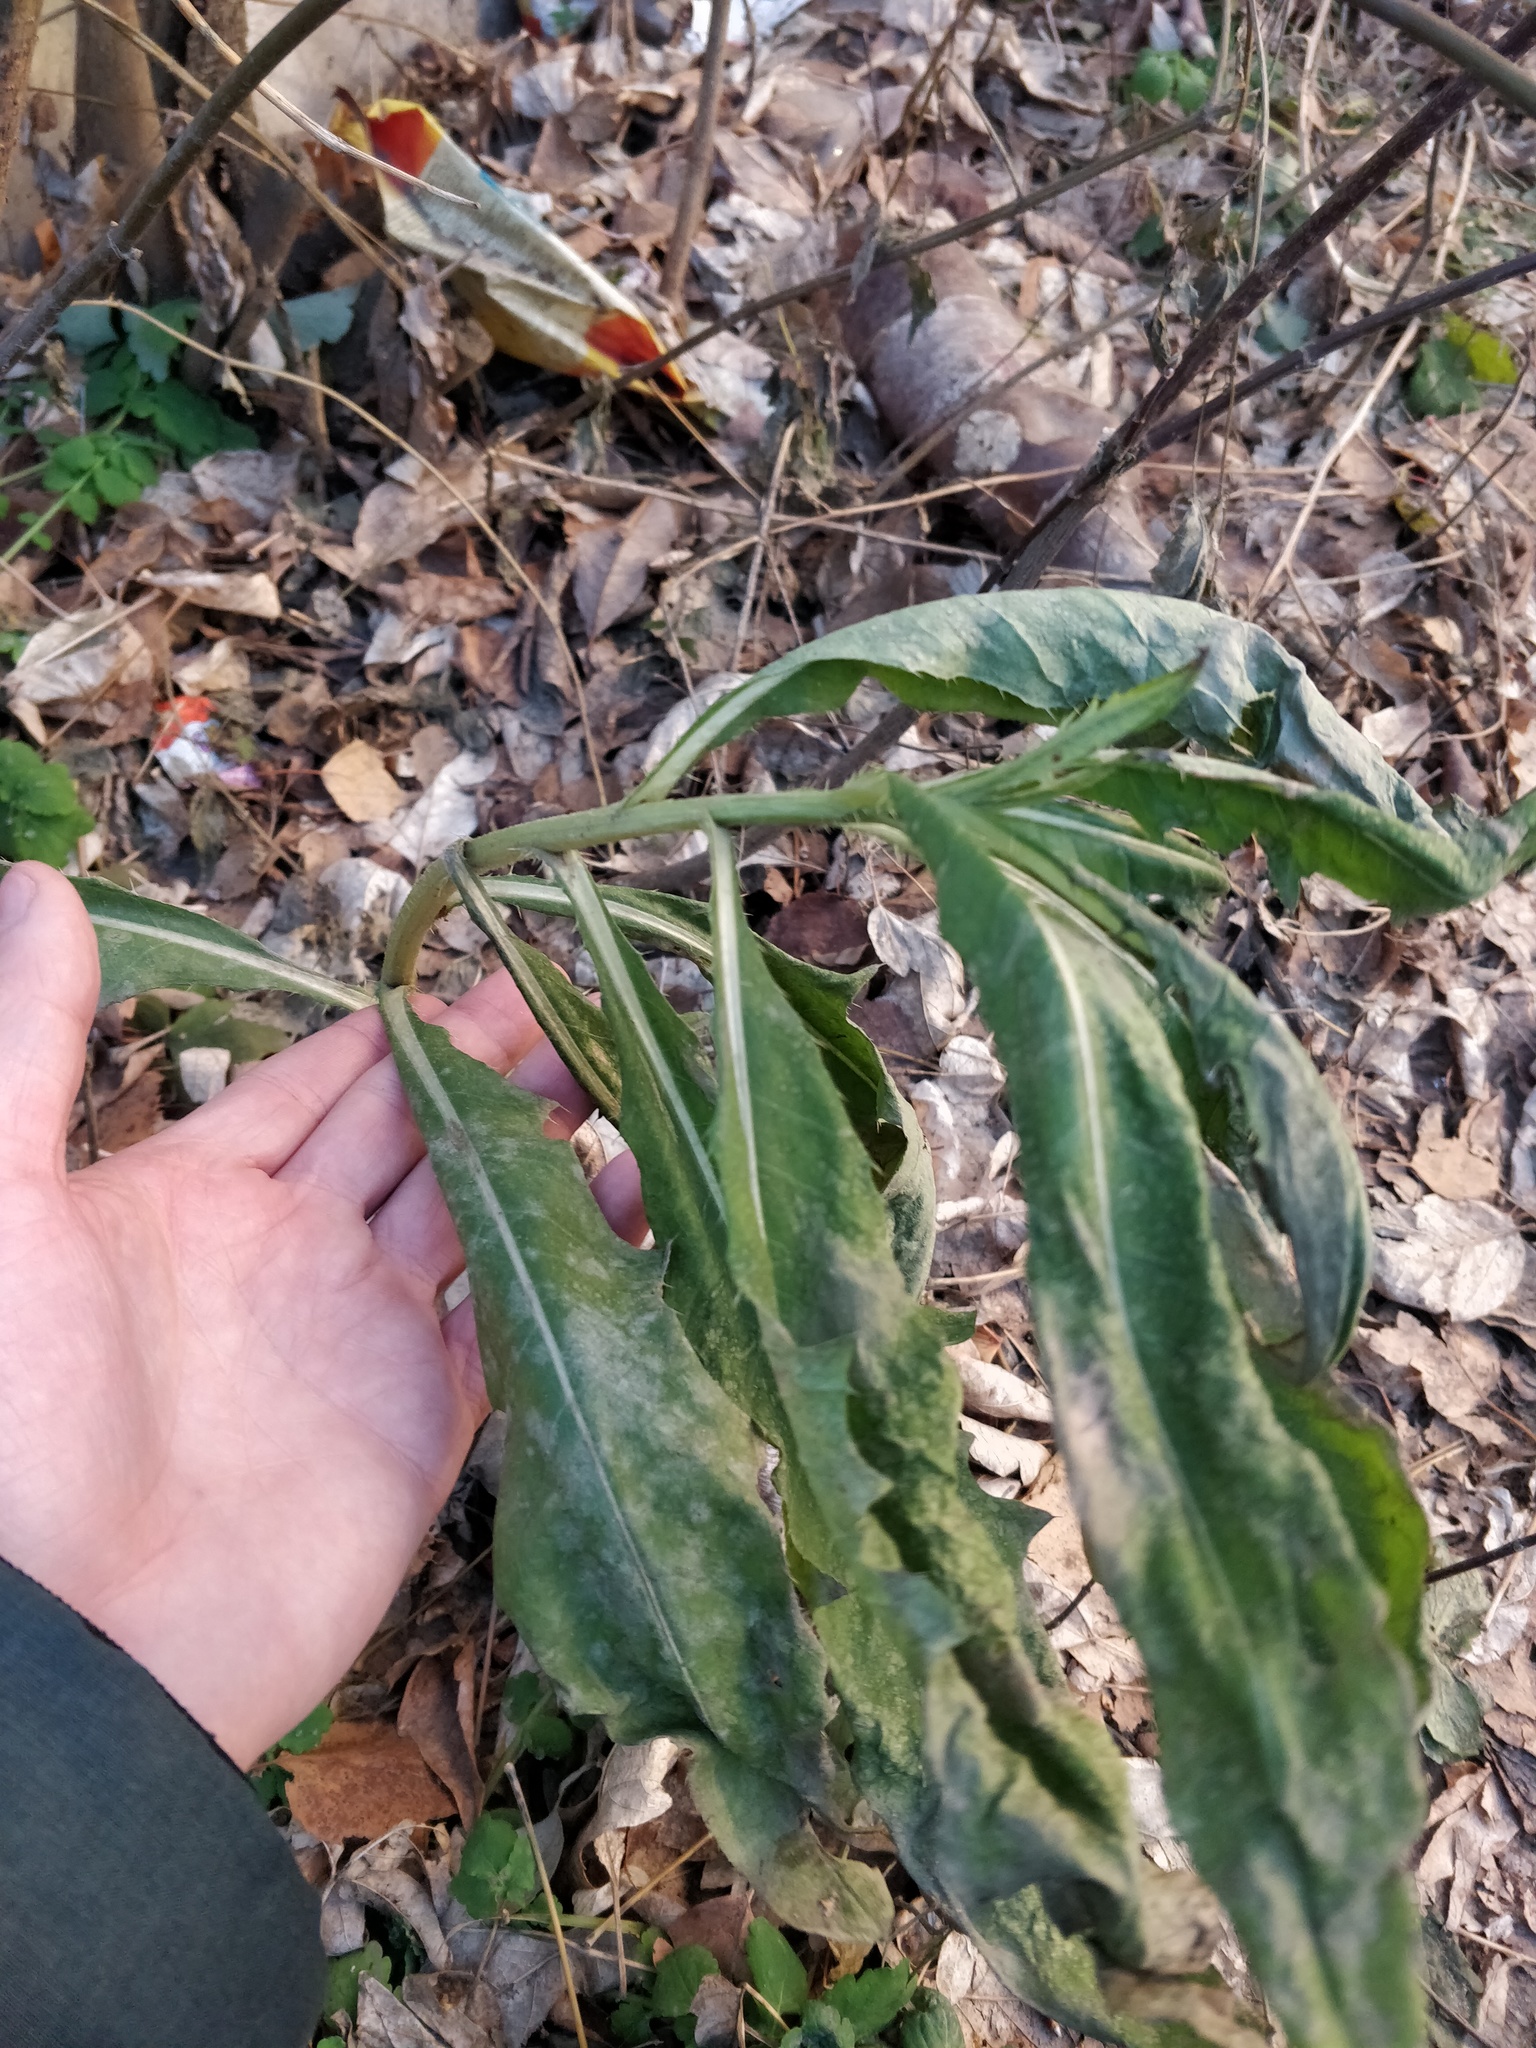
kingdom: Plantae
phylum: Tracheophyta
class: Magnoliopsida
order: Asterales
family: Asteraceae
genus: Cirsium
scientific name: Cirsium arvense
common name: Creeping thistle
